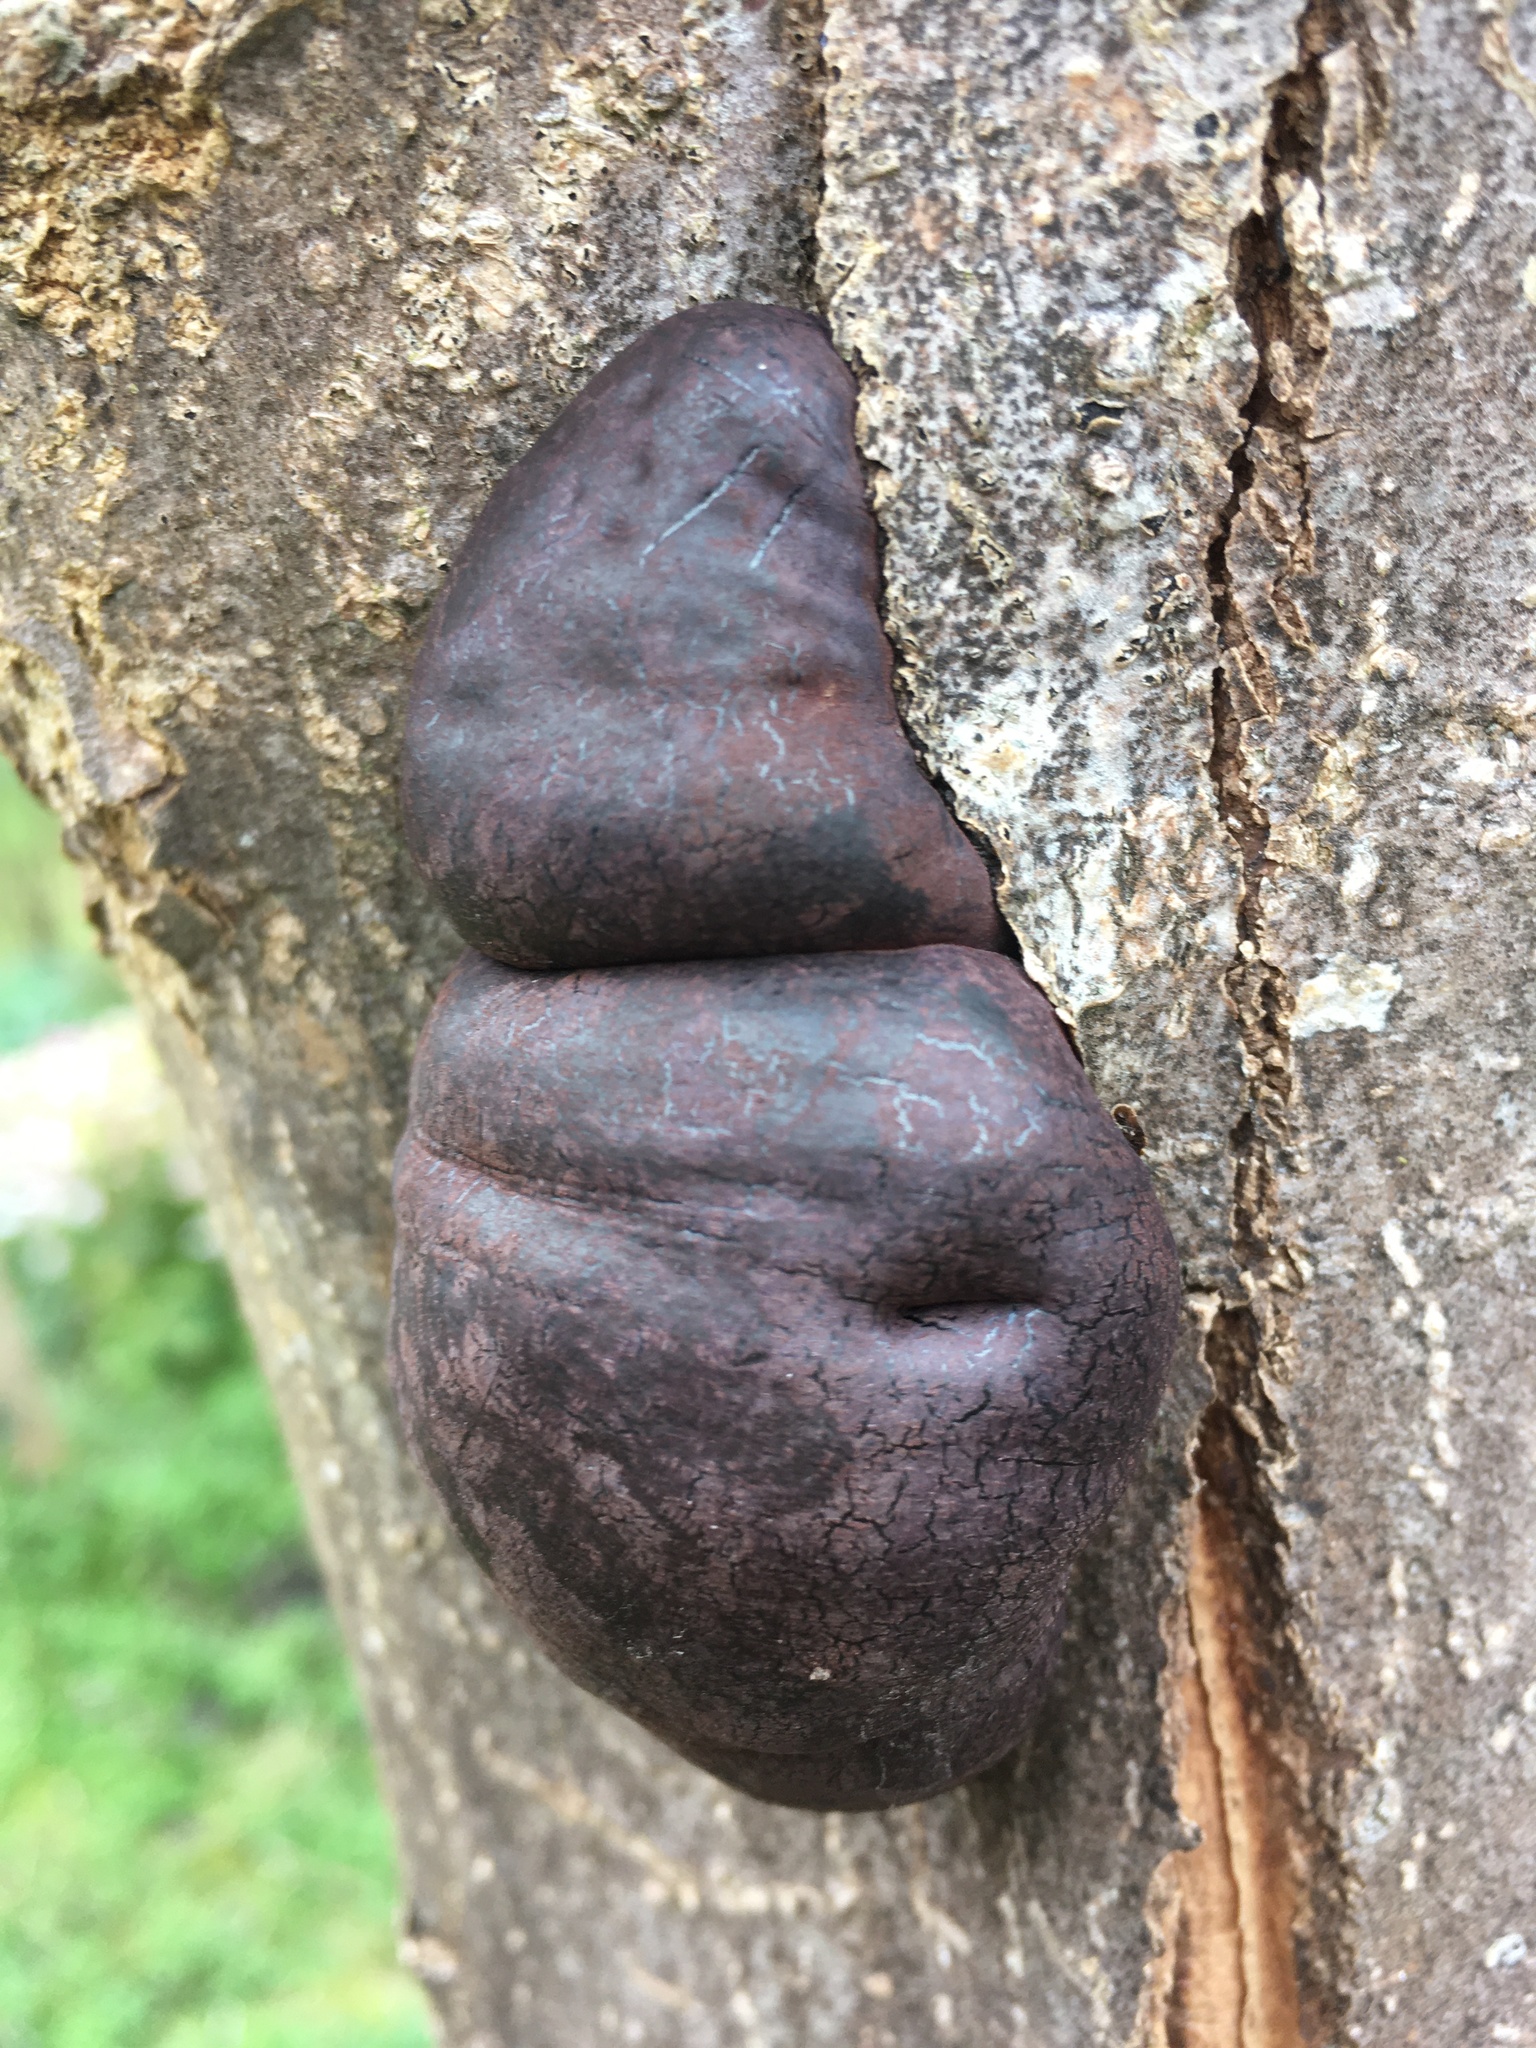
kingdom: Fungi
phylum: Ascomycota
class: Sordariomycetes
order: Xylariales
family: Hypoxylaceae
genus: Daldinia
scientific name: Daldinia concentrica
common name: Cramp balls
